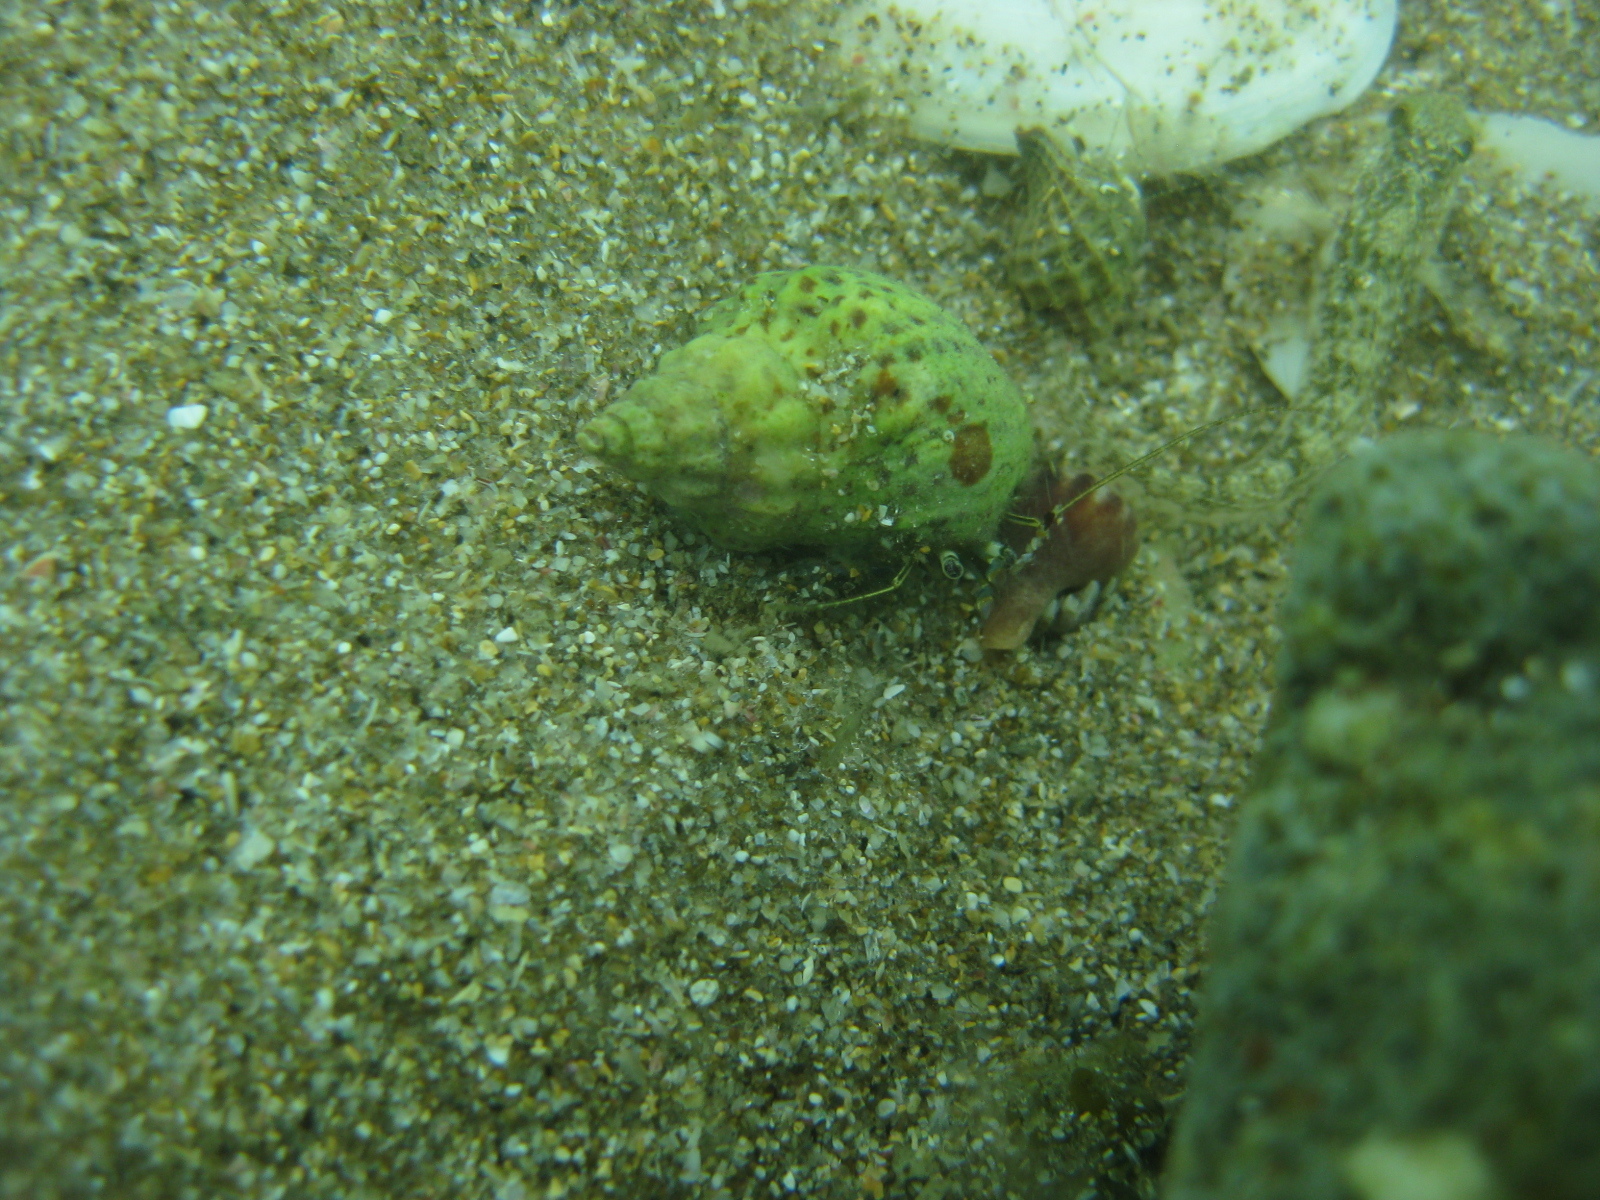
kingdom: Animalia
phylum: Arthropoda
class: Malacostraca
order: Decapoda
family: Paguridae
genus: Pagurus
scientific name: Pagurus novizealandiae
